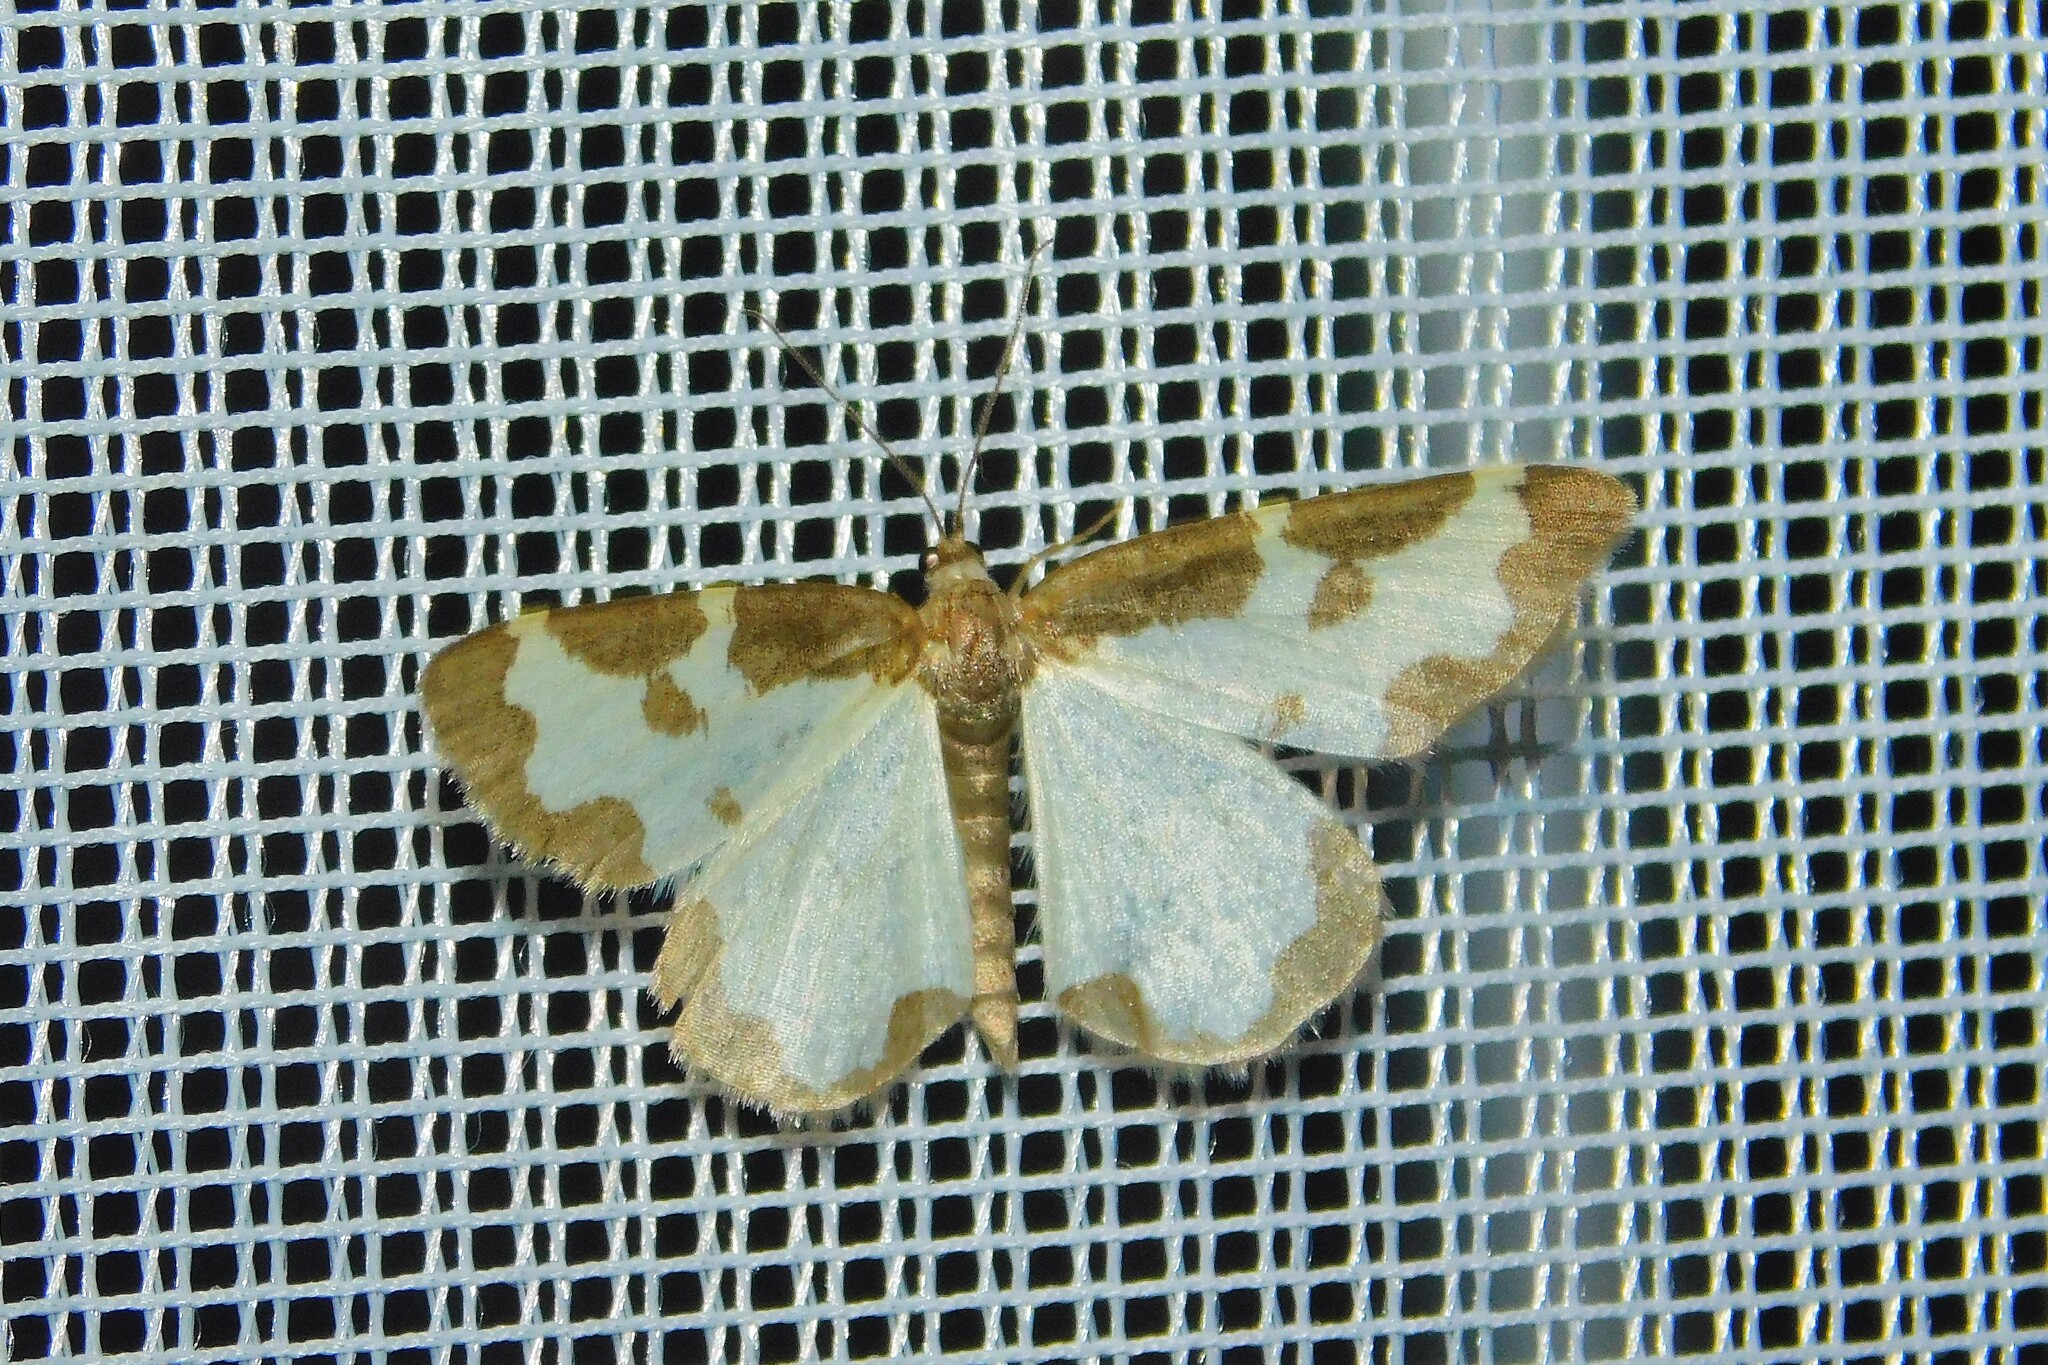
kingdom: Animalia
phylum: Arthropoda
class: Insecta
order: Lepidoptera
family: Geometridae
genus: Lomaspilis
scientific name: Lomaspilis marginata
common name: Clouded border
